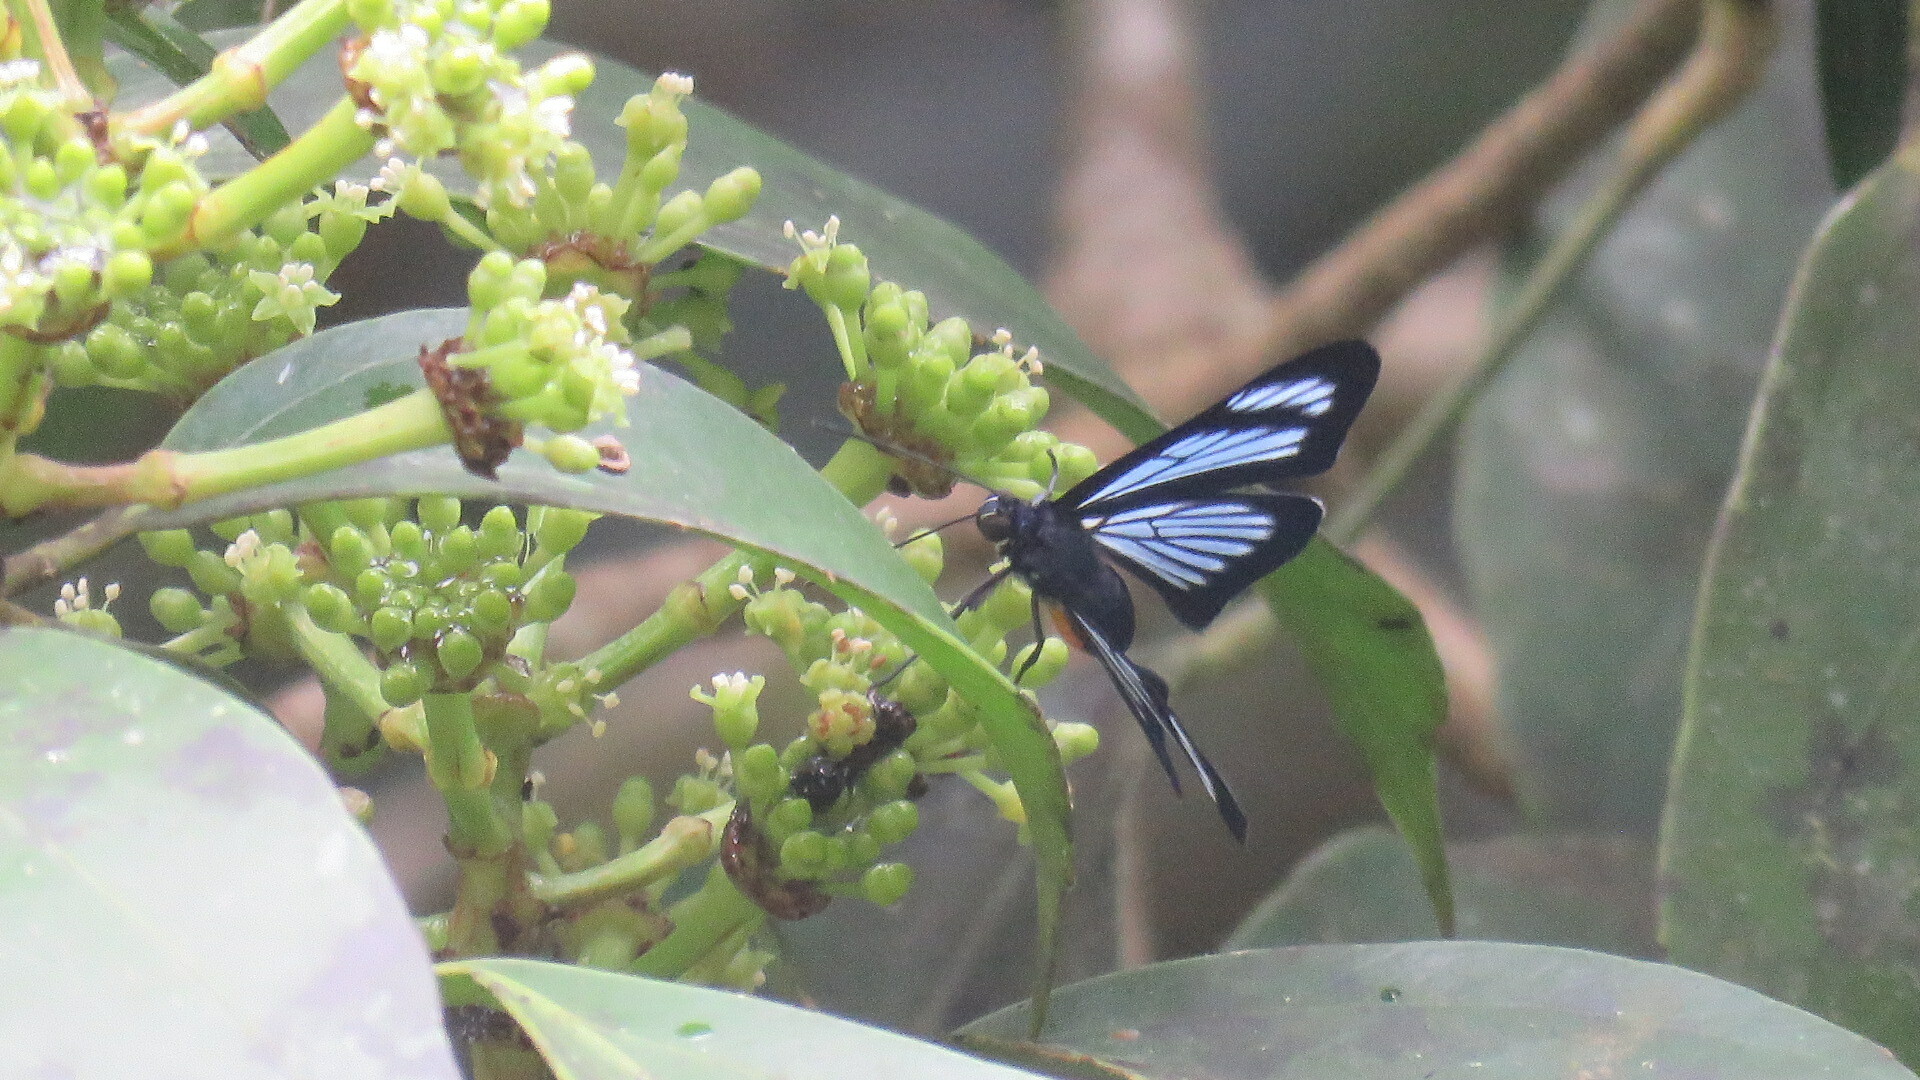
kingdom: Animalia
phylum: Arthropoda
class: Insecta
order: Lepidoptera
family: Riodinidae
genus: Brachyglenis
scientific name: Brachyglenis dinora
